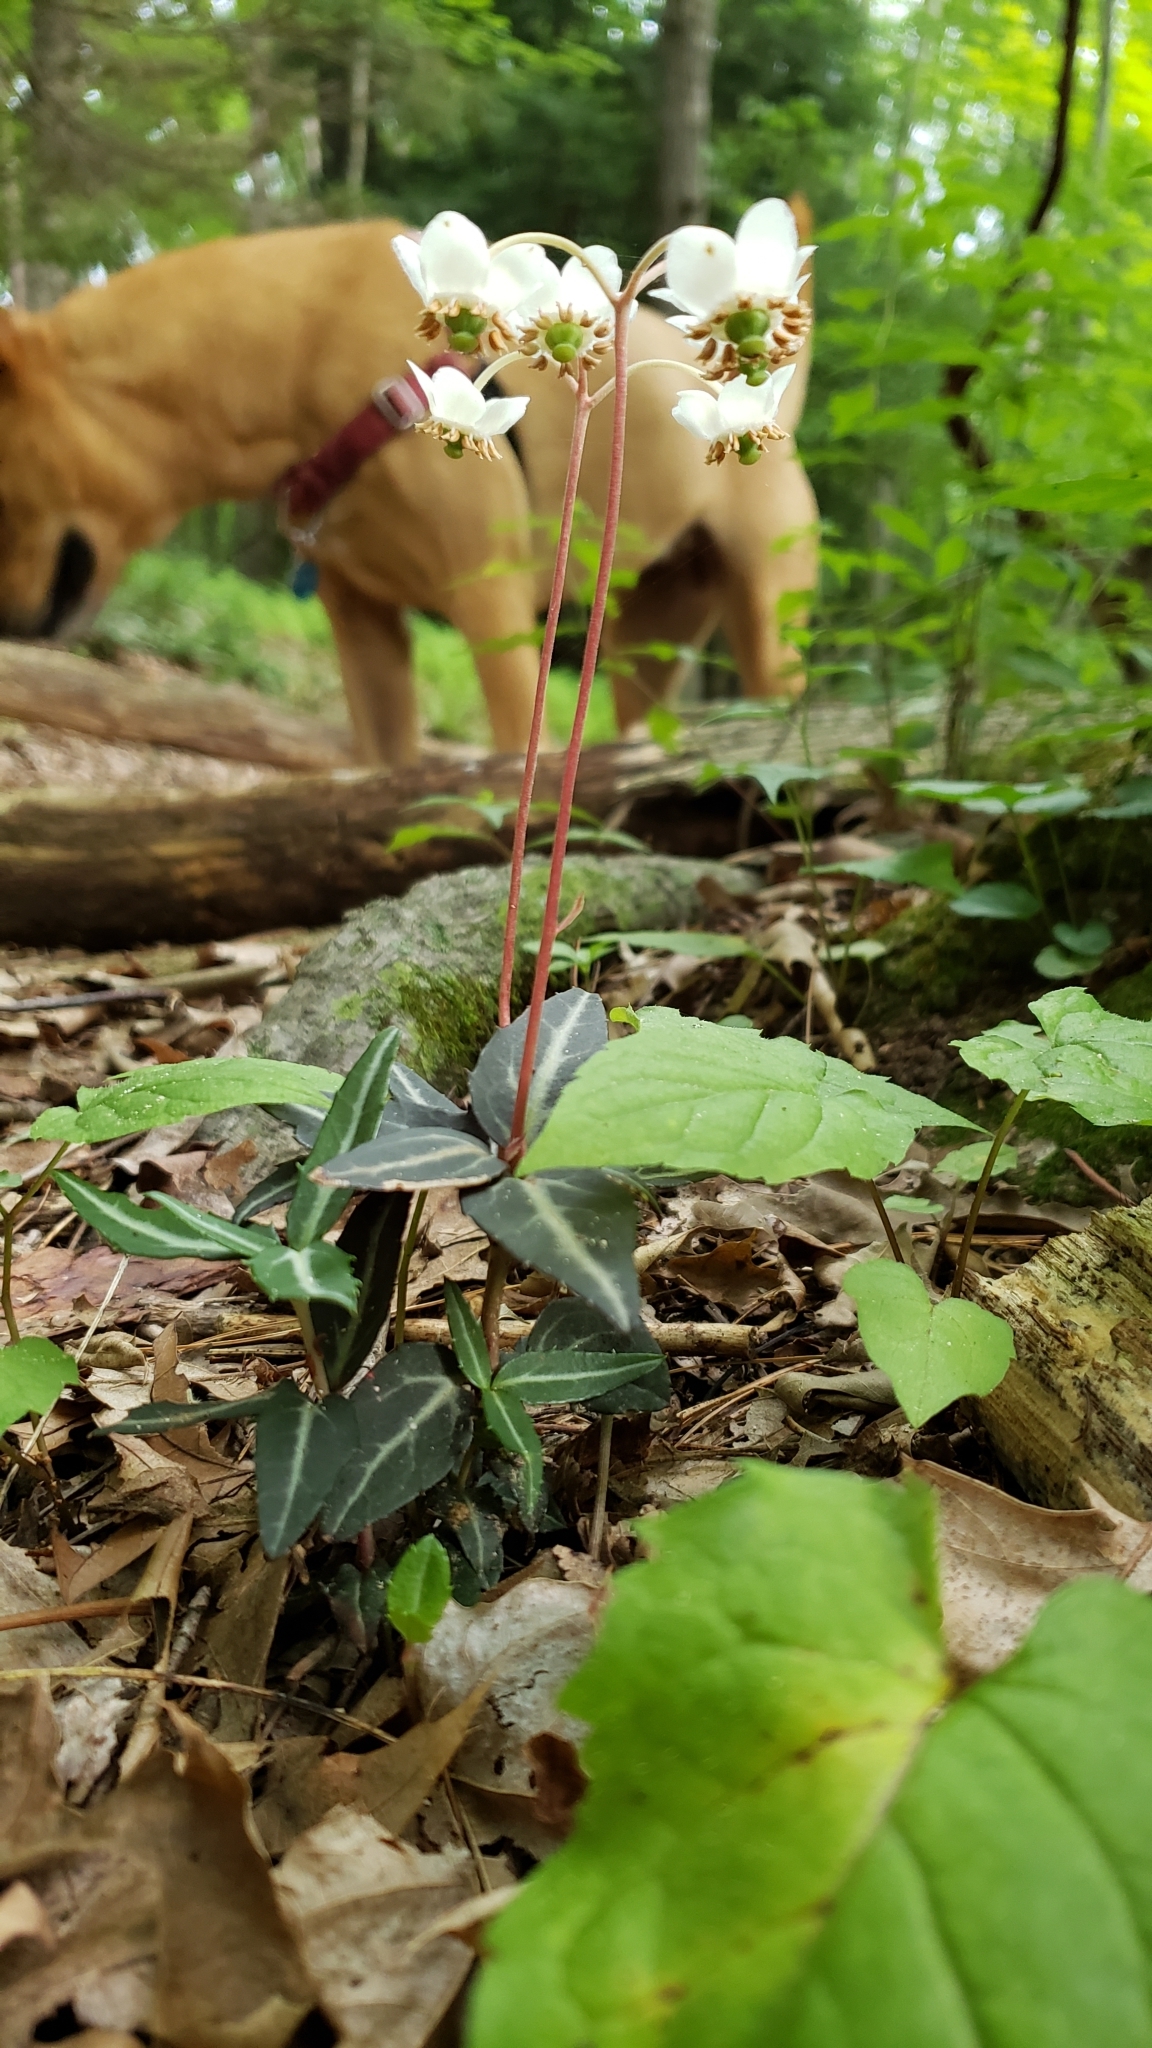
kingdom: Plantae
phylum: Tracheophyta
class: Magnoliopsida
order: Ericales
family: Ericaceae
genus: Chimaphila
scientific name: Chimaphila maculata
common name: Spotted pipsissewa
